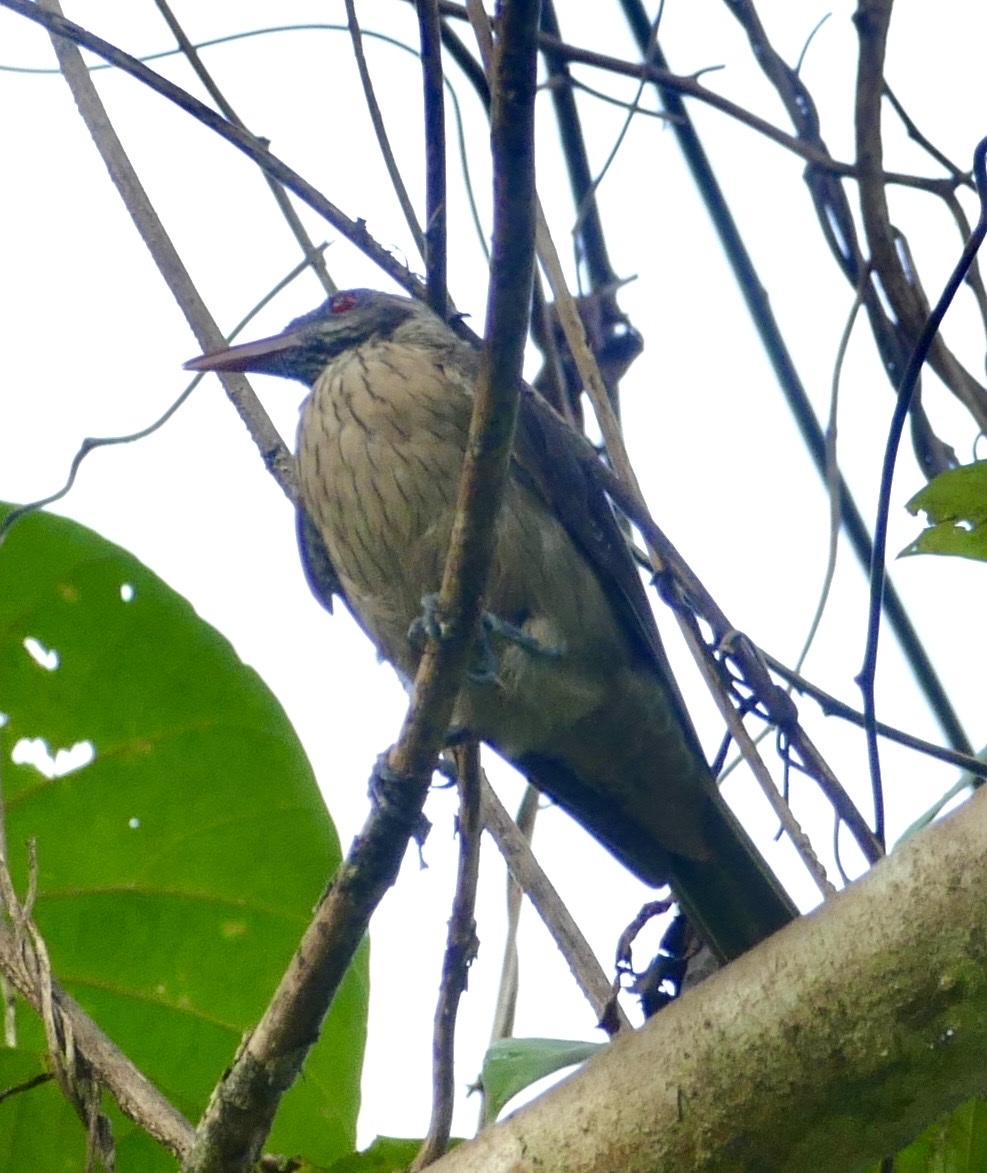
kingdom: Animalia
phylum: Chordata
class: Aves
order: Passeriformes
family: Oriolidae
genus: Oriolus
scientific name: Oriolus szalayi
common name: Brown oriole
